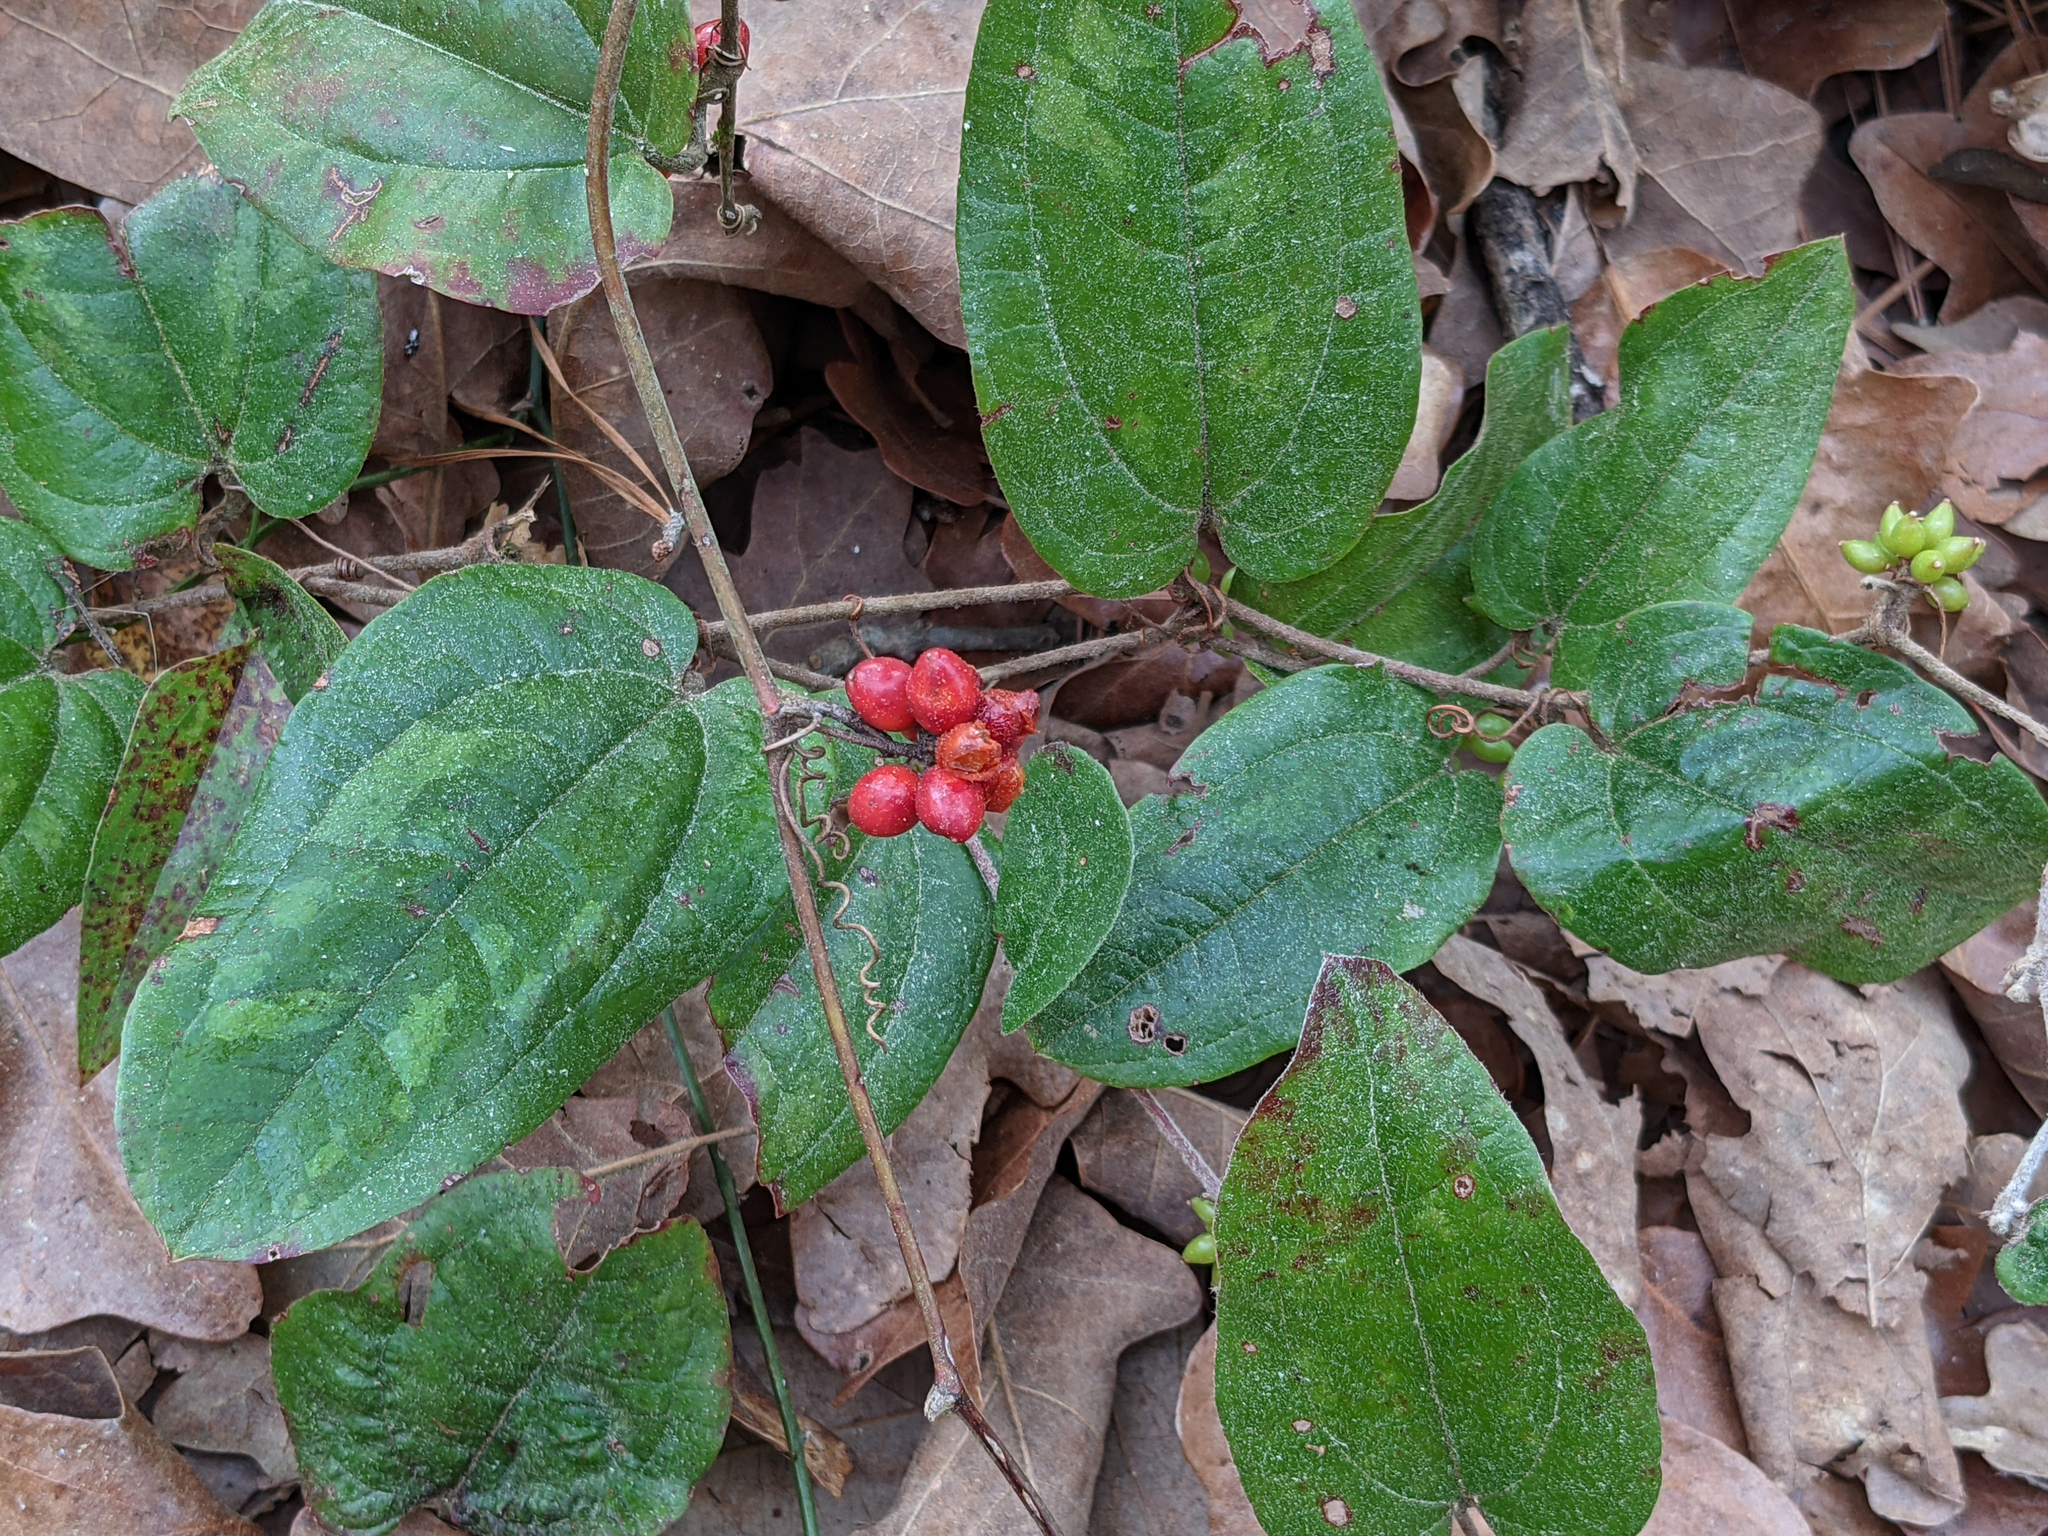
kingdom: Plantae
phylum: Tracheophyta
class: Liliopsida
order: Liliales
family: Smilacaceae
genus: Smilax
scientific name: Smilax pumila
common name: Sarsaparilla-vine
